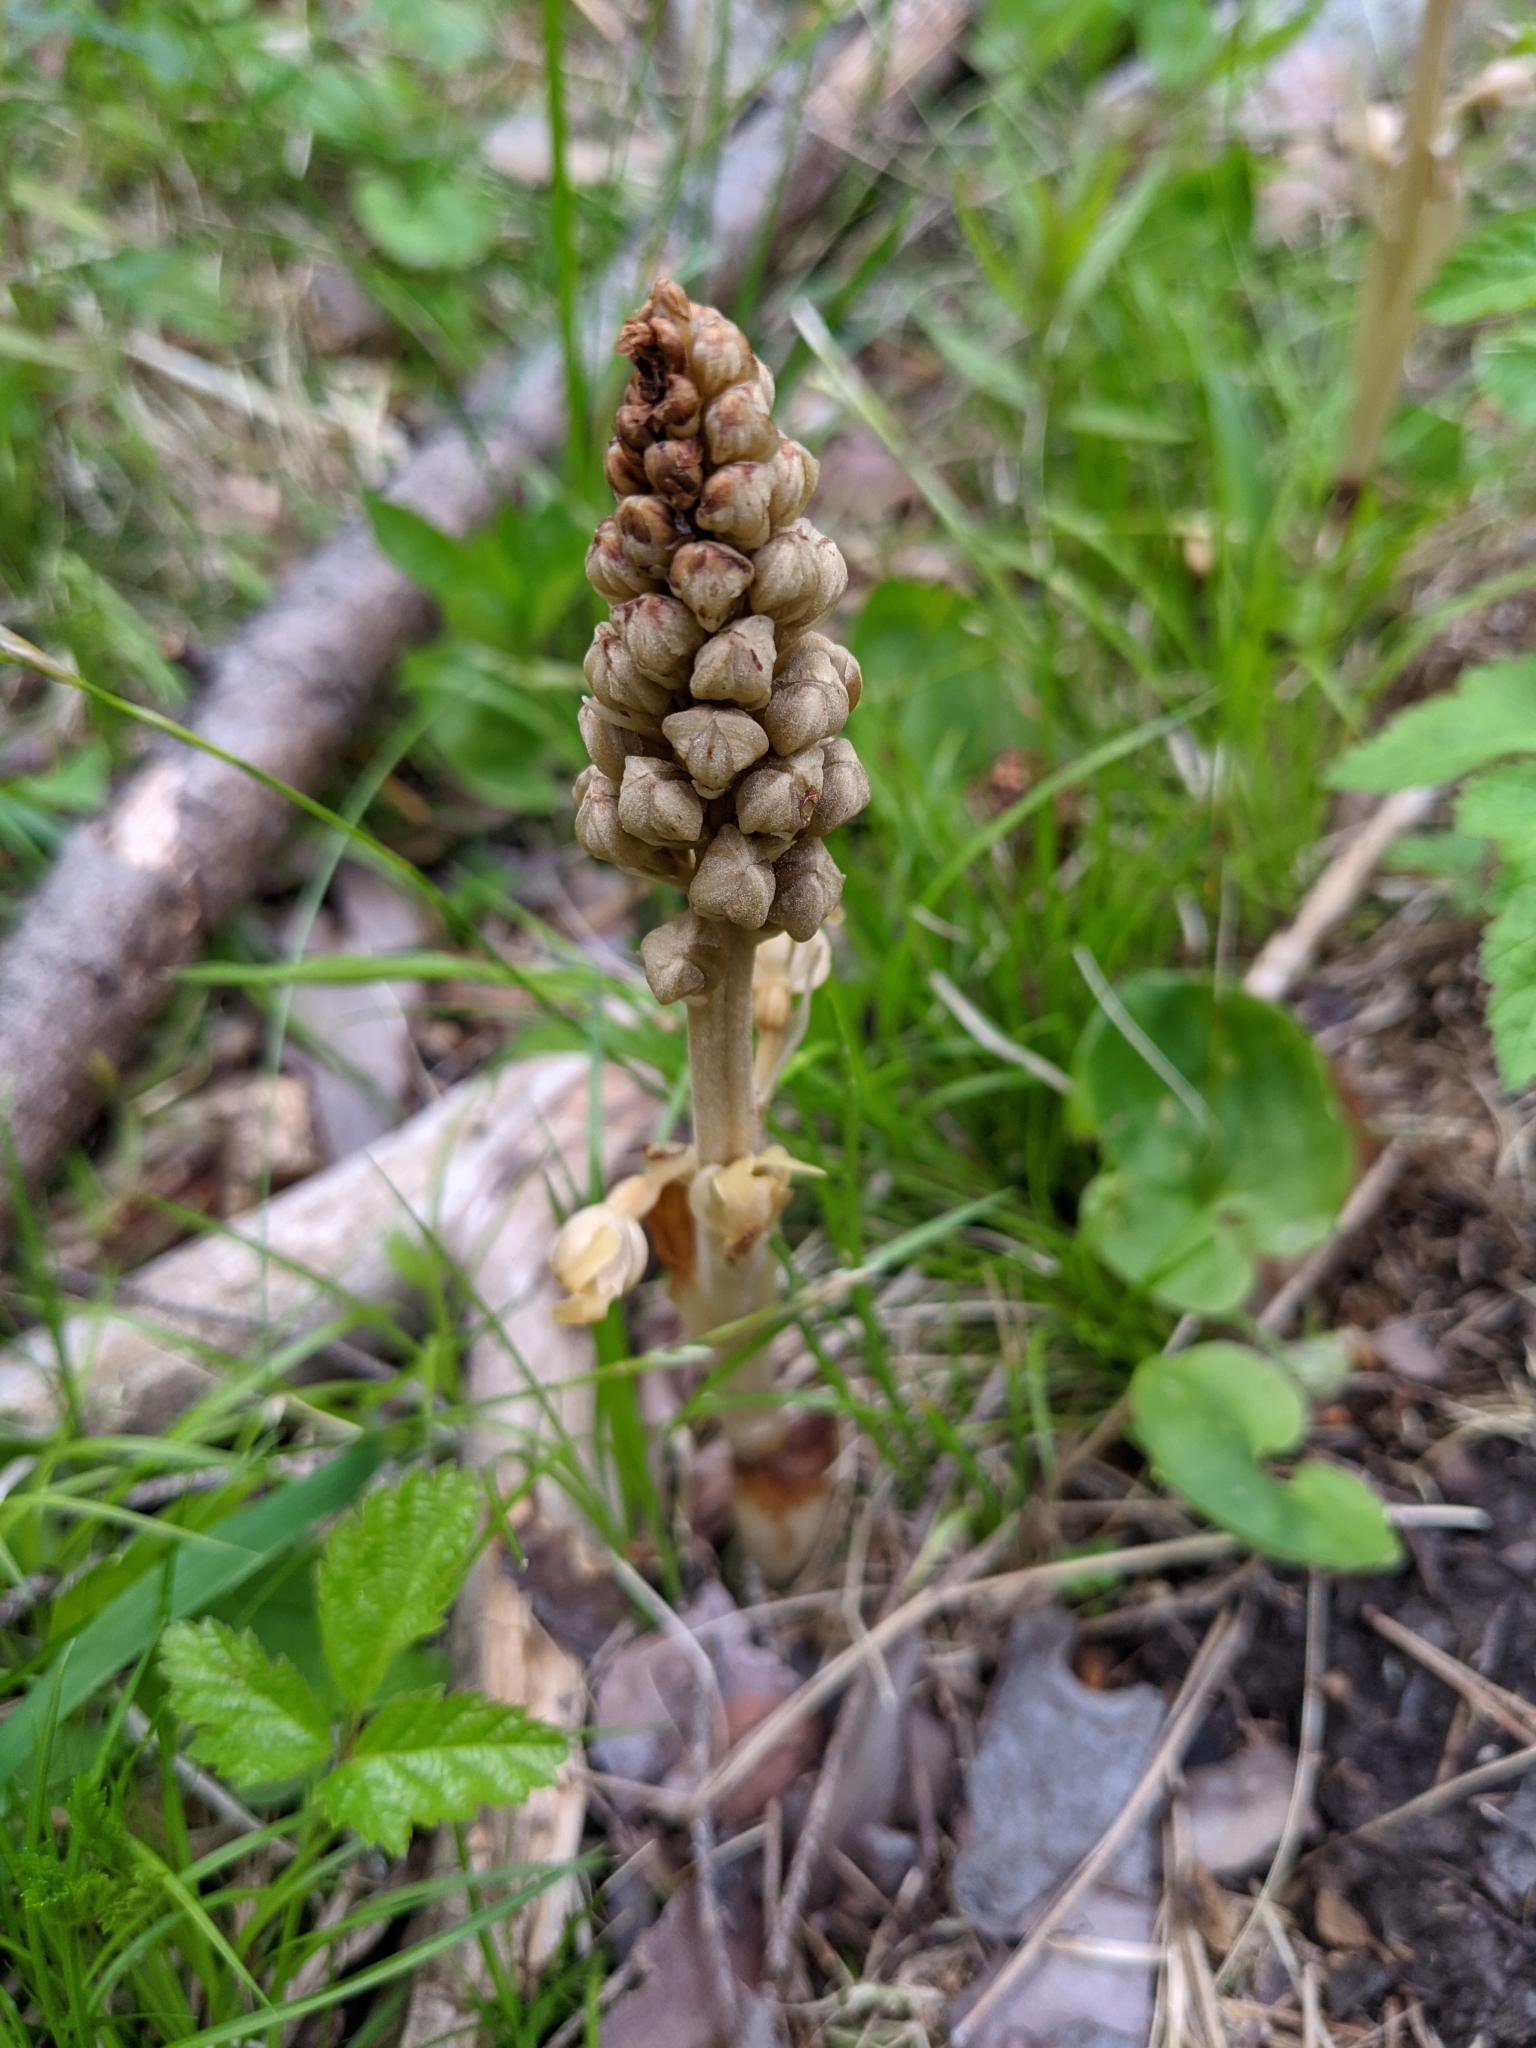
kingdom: Plantae
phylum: Tracheophyta
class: Liliopsida
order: Asparagales
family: Orchidaceae
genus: Neottia
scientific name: Neottia nidus-avis
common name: Bird's-nest orchid
